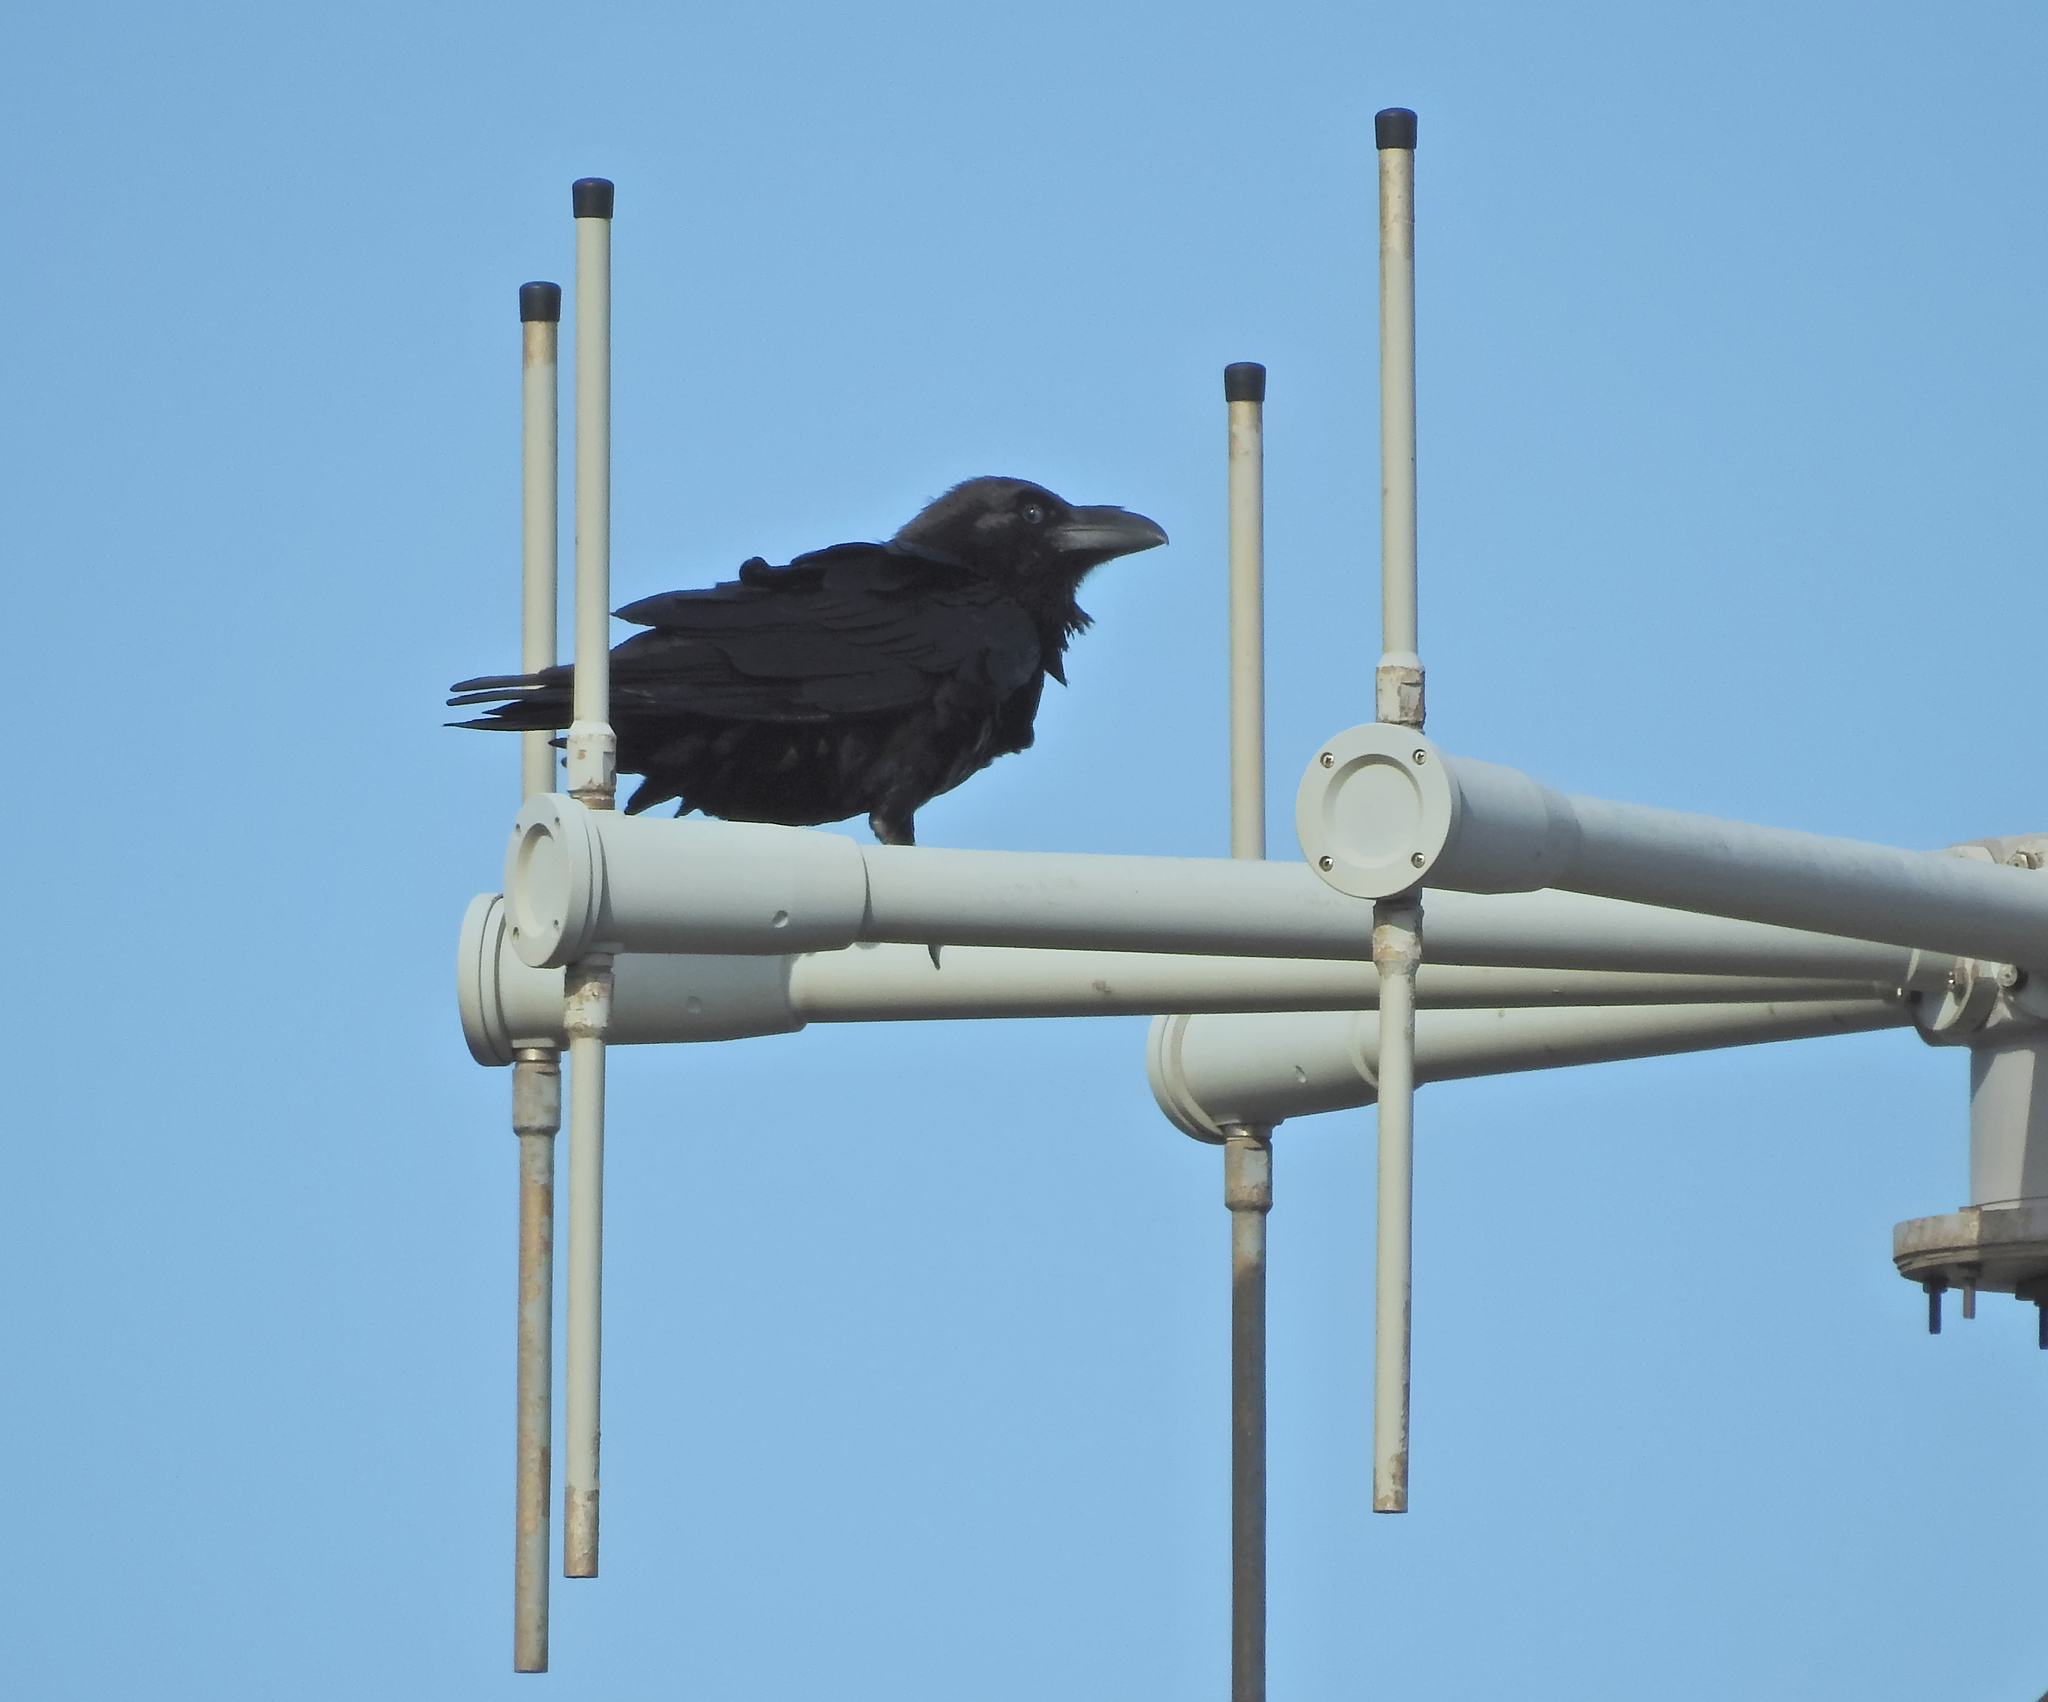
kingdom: Animalia
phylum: Chordata
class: Aves
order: Passeriformes
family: Corvidae
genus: Corvus
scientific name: Corvus corax
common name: Common raven
